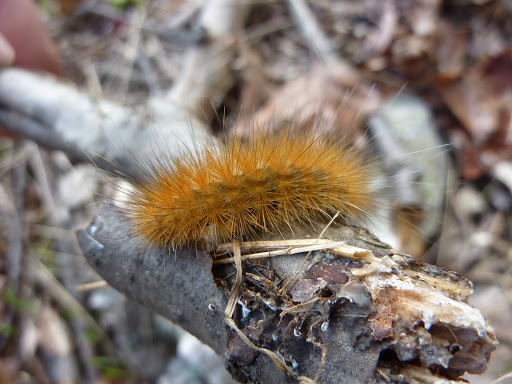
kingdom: Animalia
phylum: Arthropoda
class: Insecta
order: Lepidoptera
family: Erebidae
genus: Spilosoma
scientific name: Spilosoma virginica
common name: Virginia tiger moth
